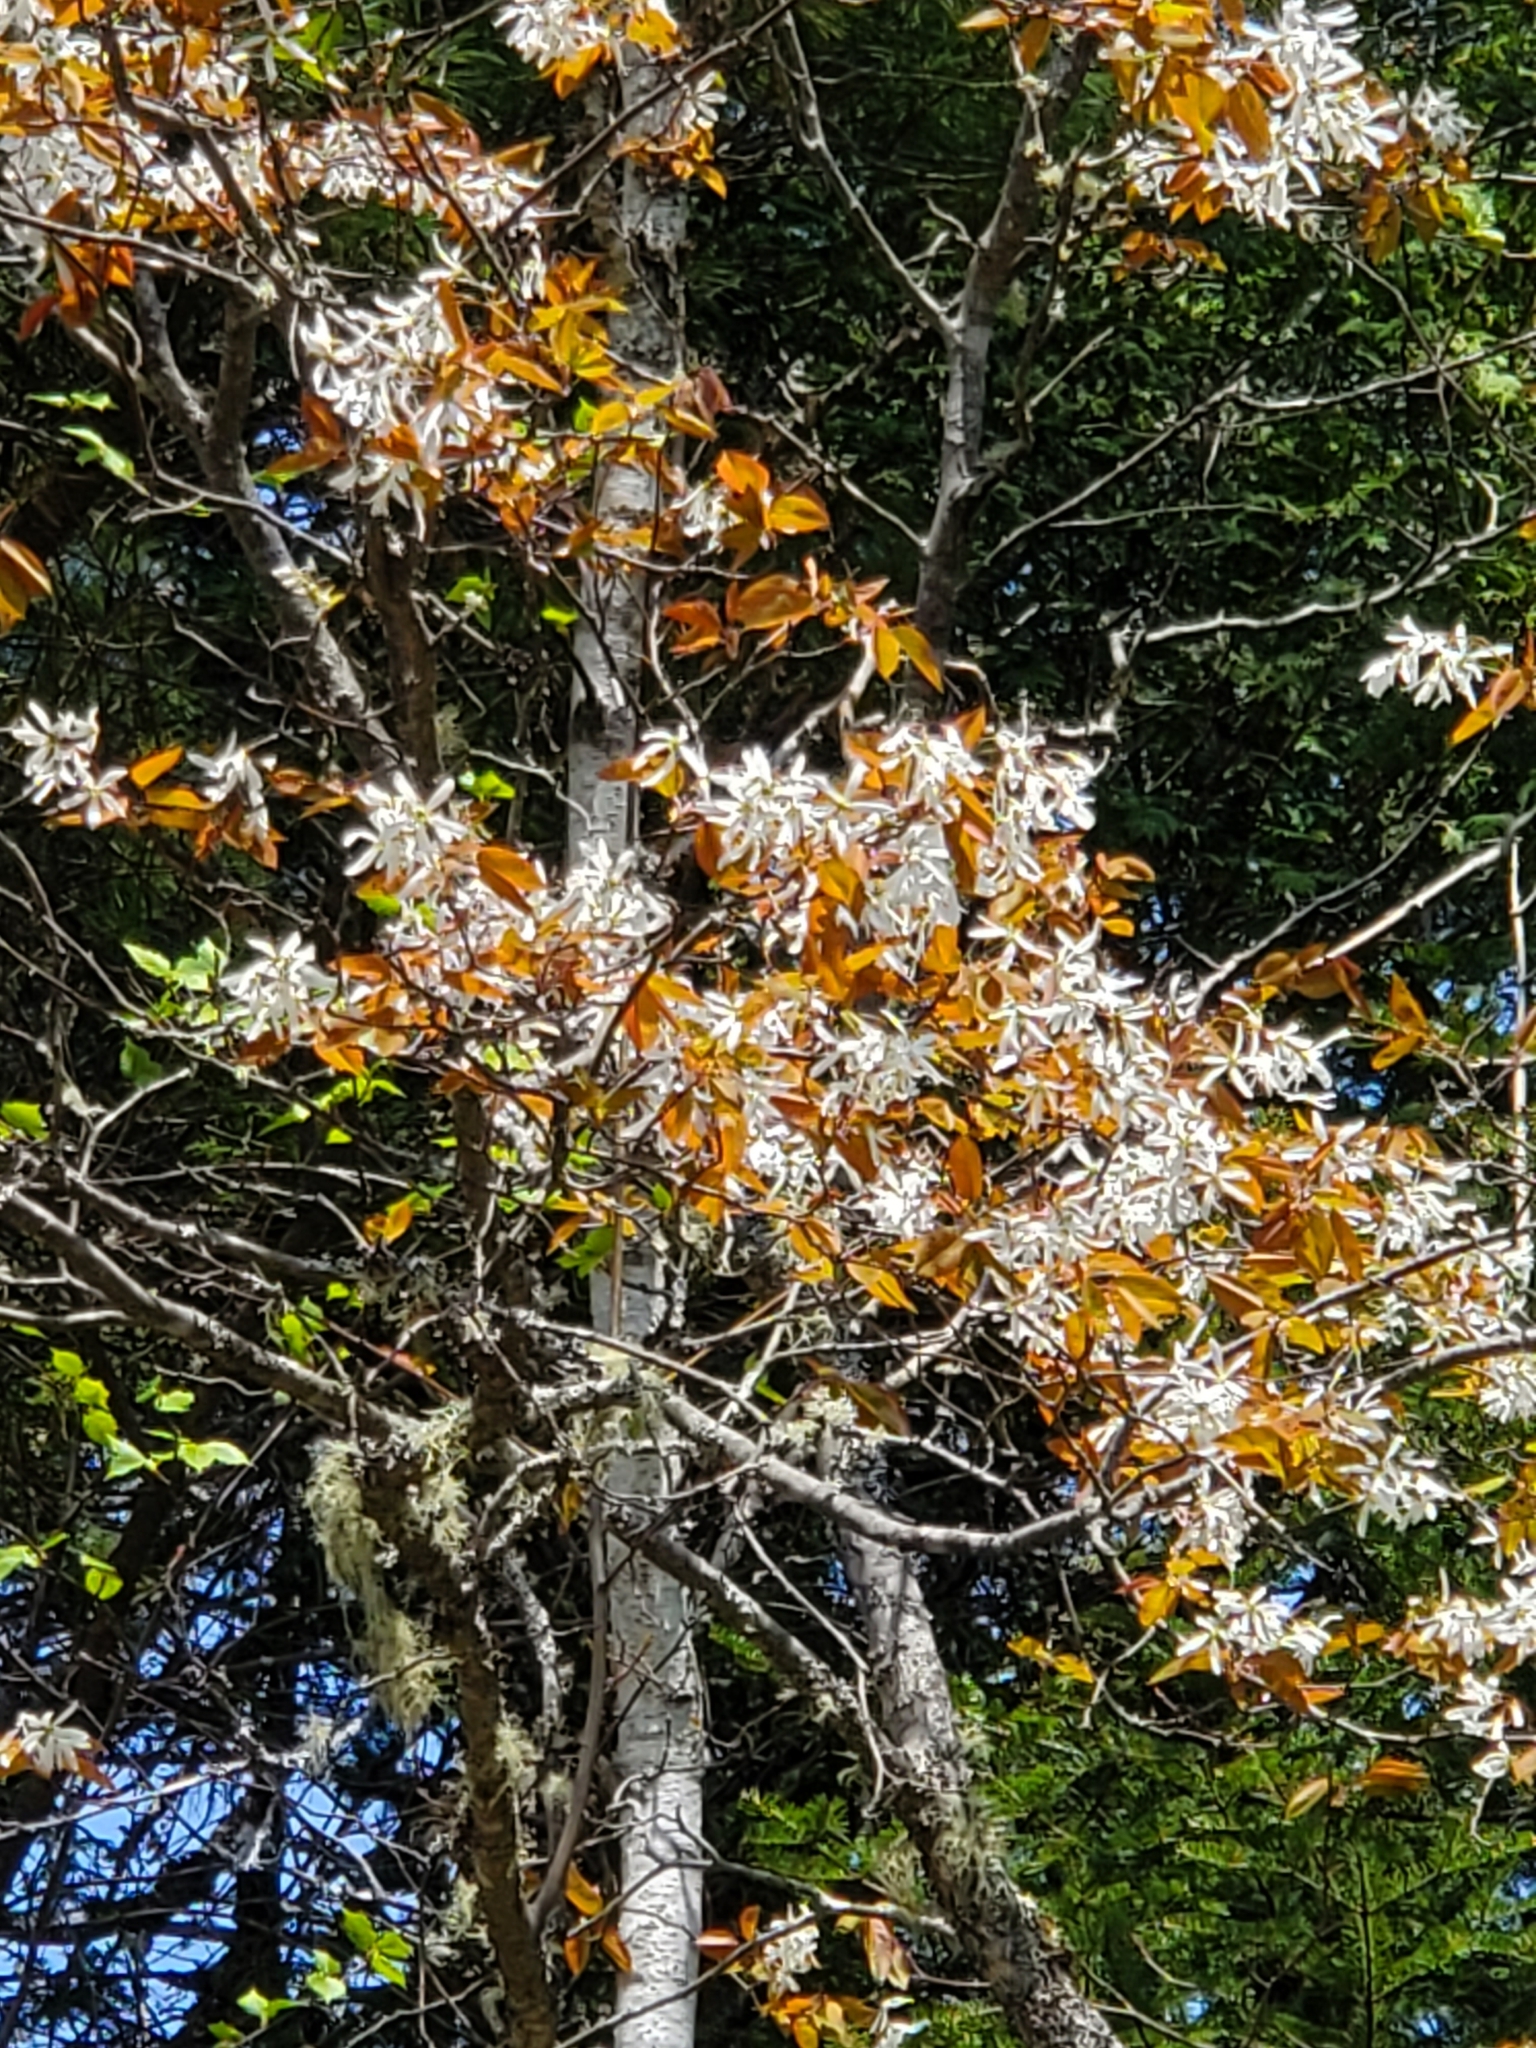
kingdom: Plantae
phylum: Tracheophyta
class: Magnoliopsida
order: Rosales
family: Rosaceae
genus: Amelanchier
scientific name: Amelanchier arborea
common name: Downy serviceberry
